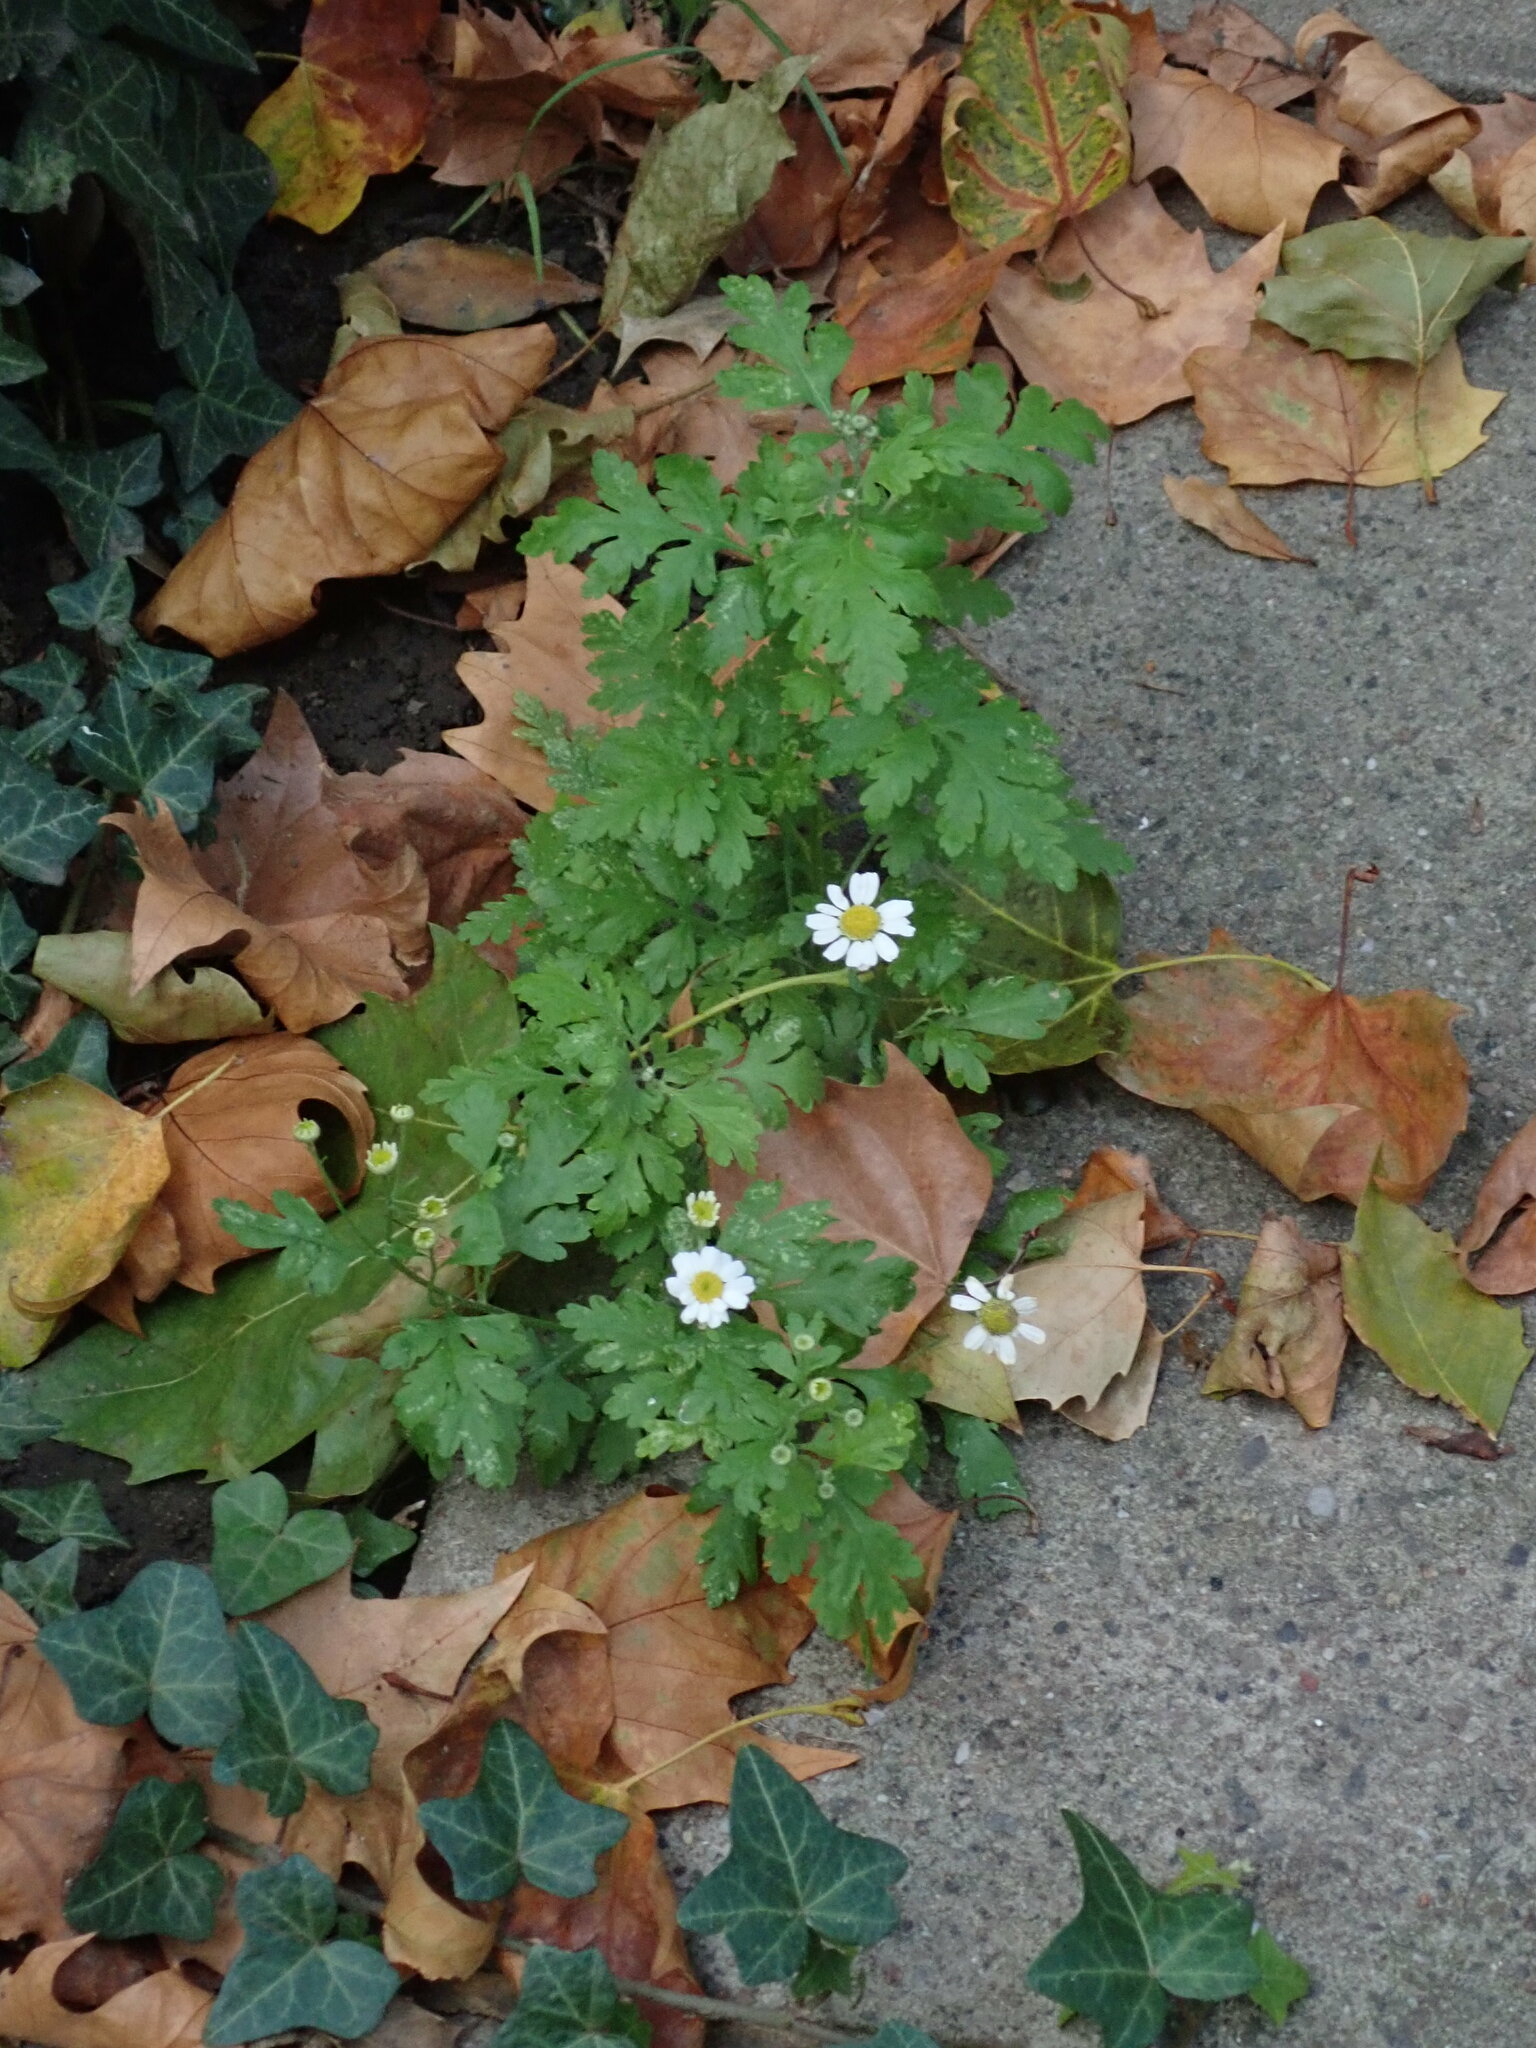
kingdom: Plantae
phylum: Tracheophyta
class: Magnoliopsida
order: Asterales
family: Asteraceae
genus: Tanacetum
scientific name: Tanacetum parthenium
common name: Feverfew
